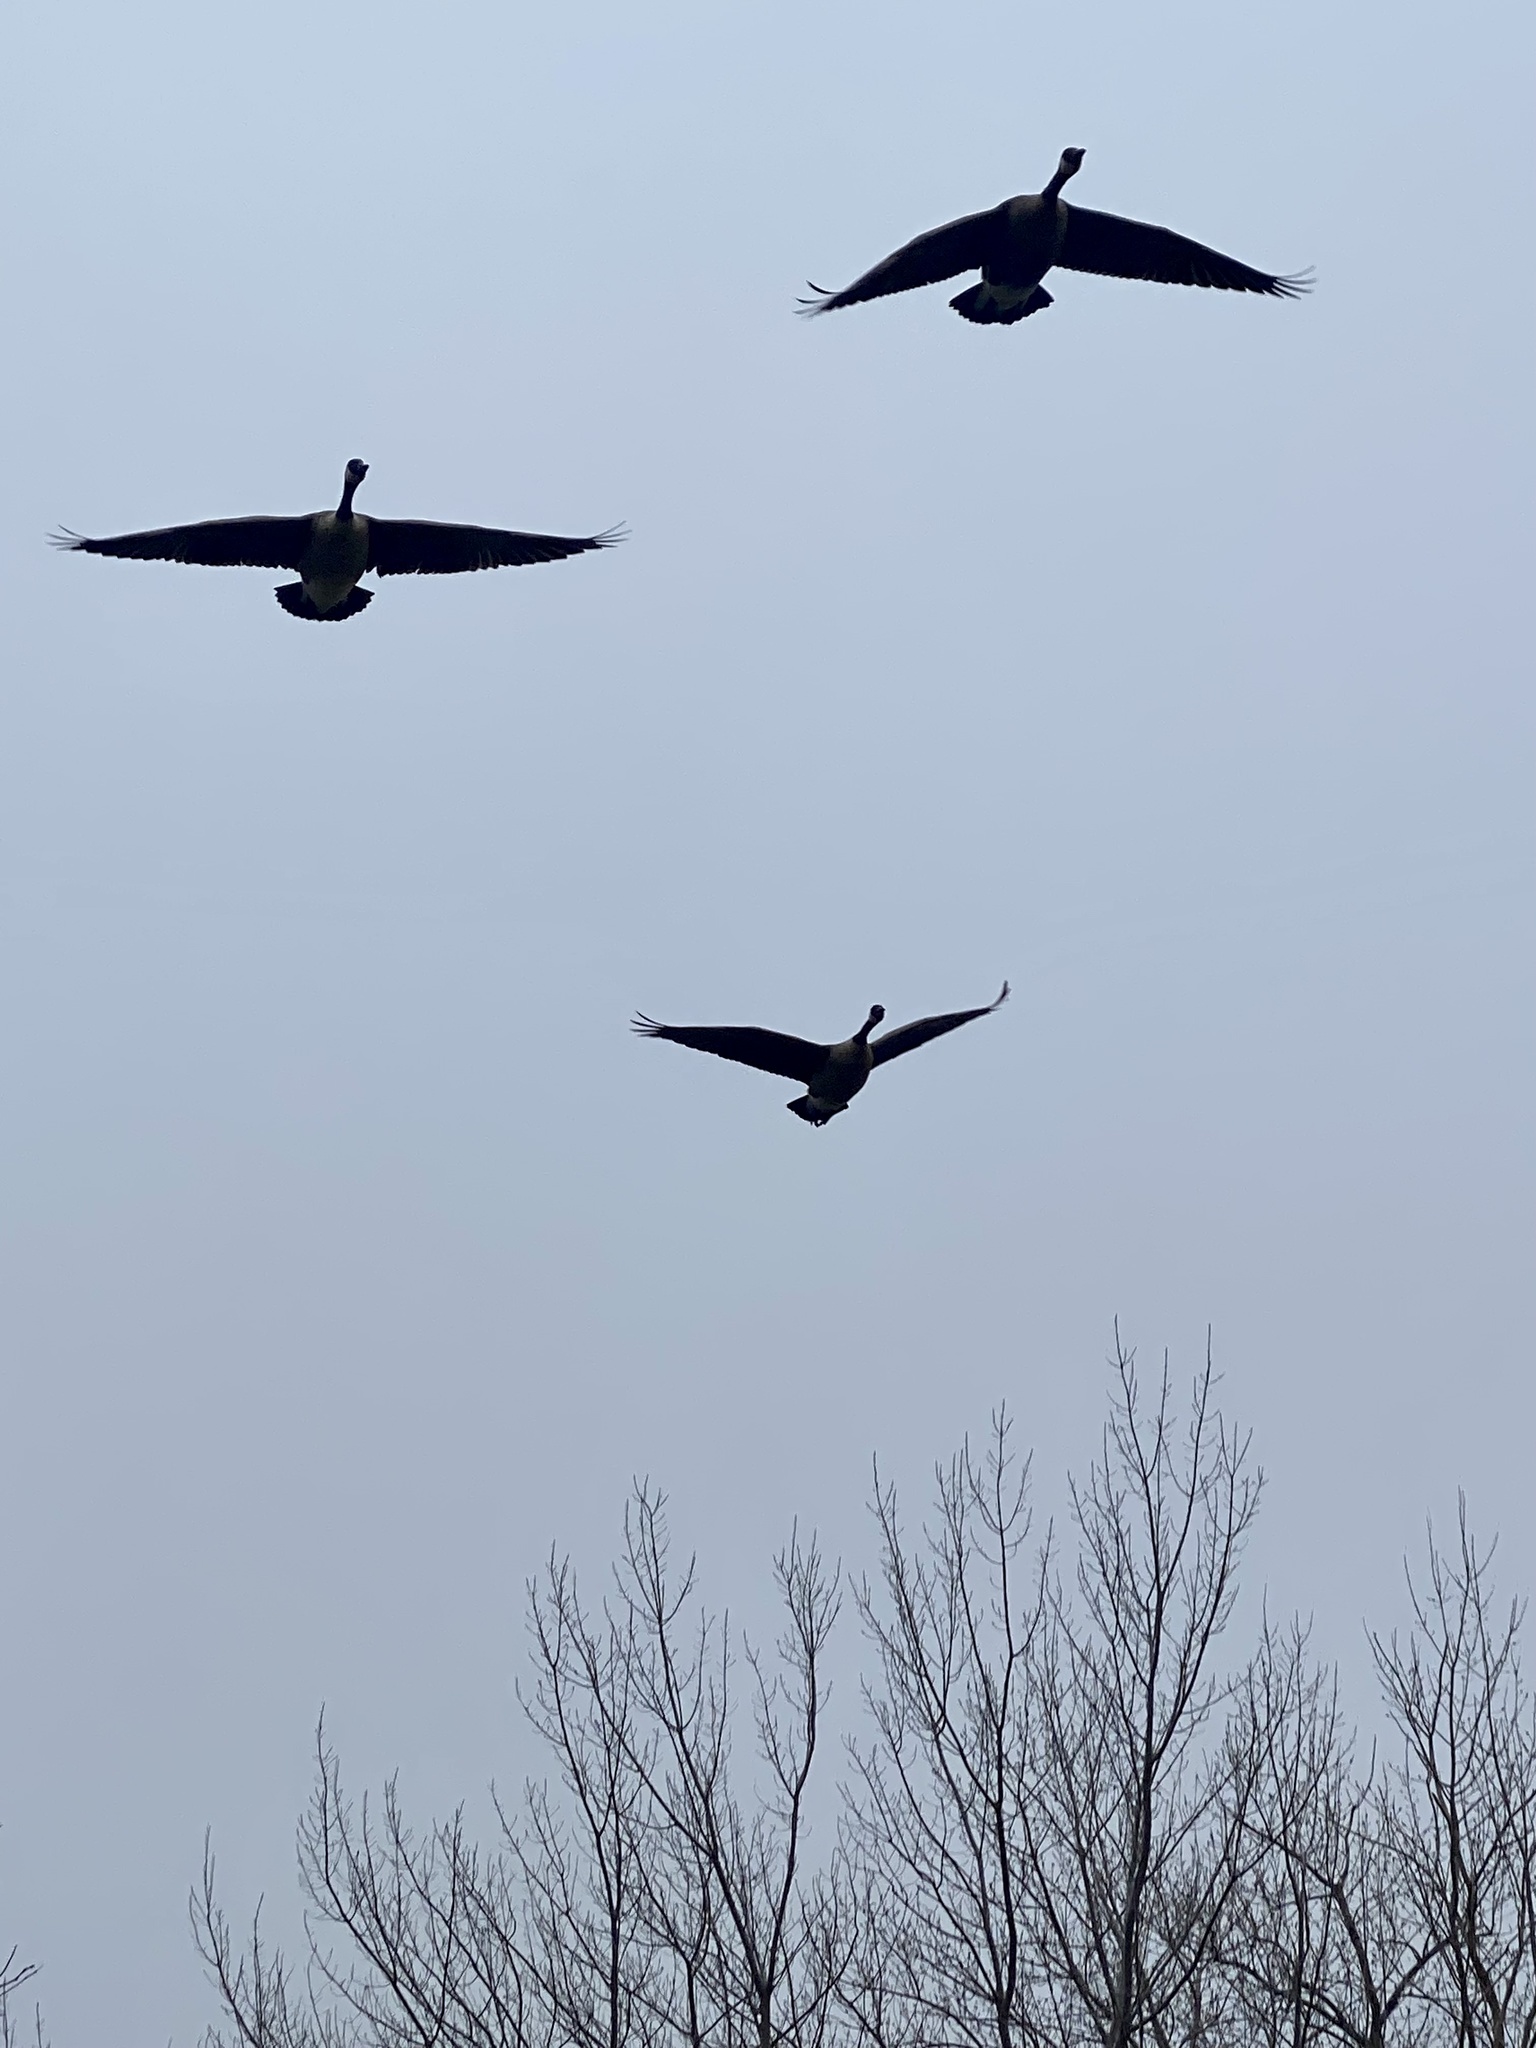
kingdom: Animalia
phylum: Chordata
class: Aves
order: Anseriformes
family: Anatidae
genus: Branta
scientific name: Branta canadensis
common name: Canada goose
